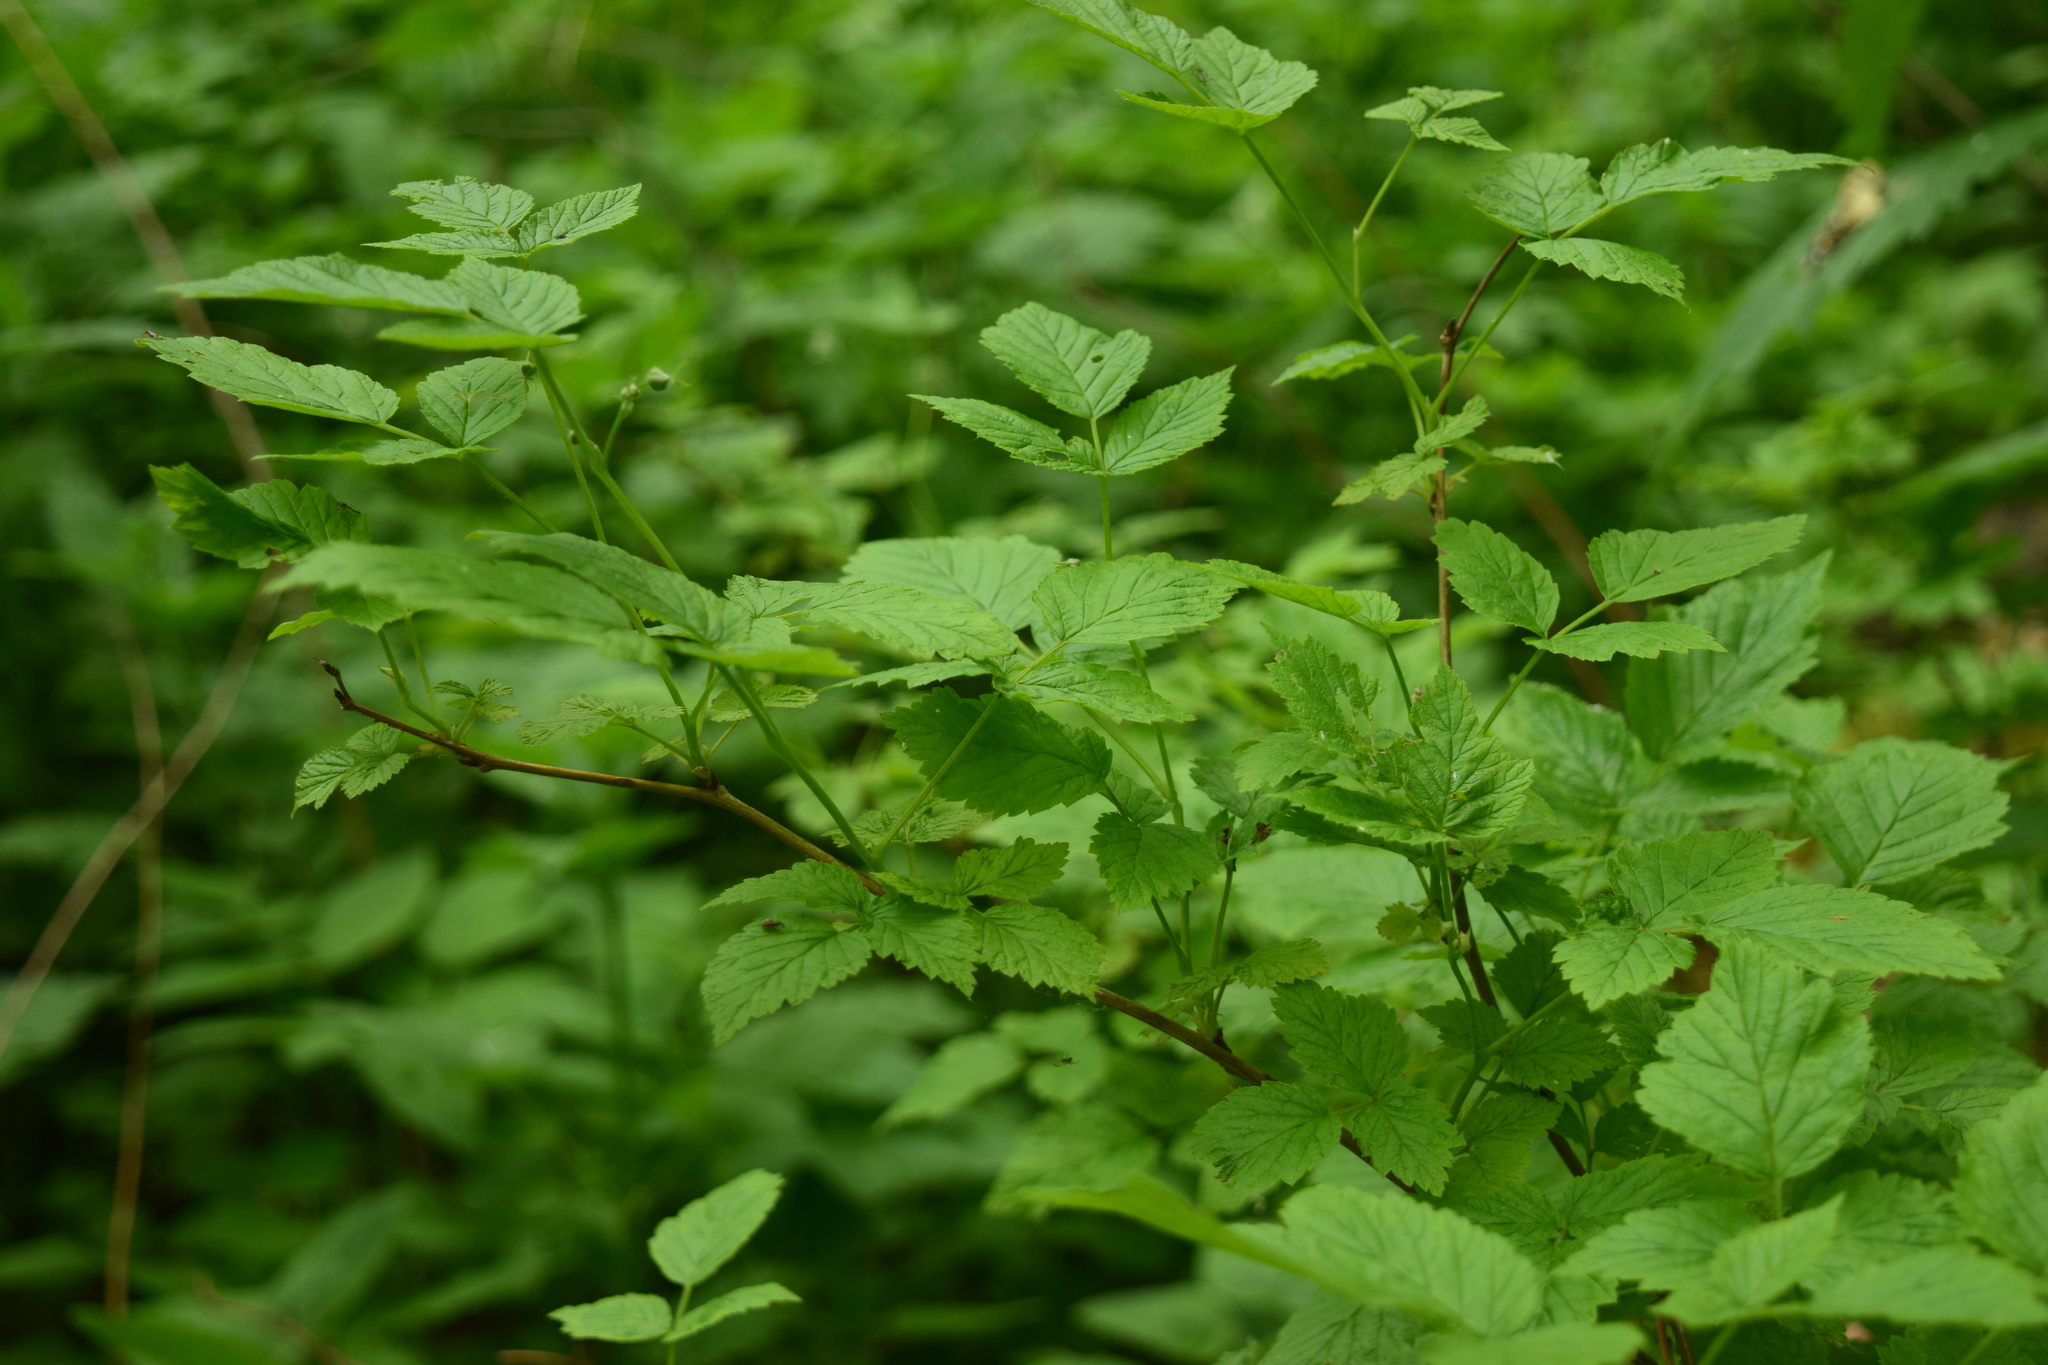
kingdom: Plantae
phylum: Tracheophyta
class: Magnoliopsida
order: Rosales
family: Rosaceae
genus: Rubus
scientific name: Rubus idaeus
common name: Raspberry
